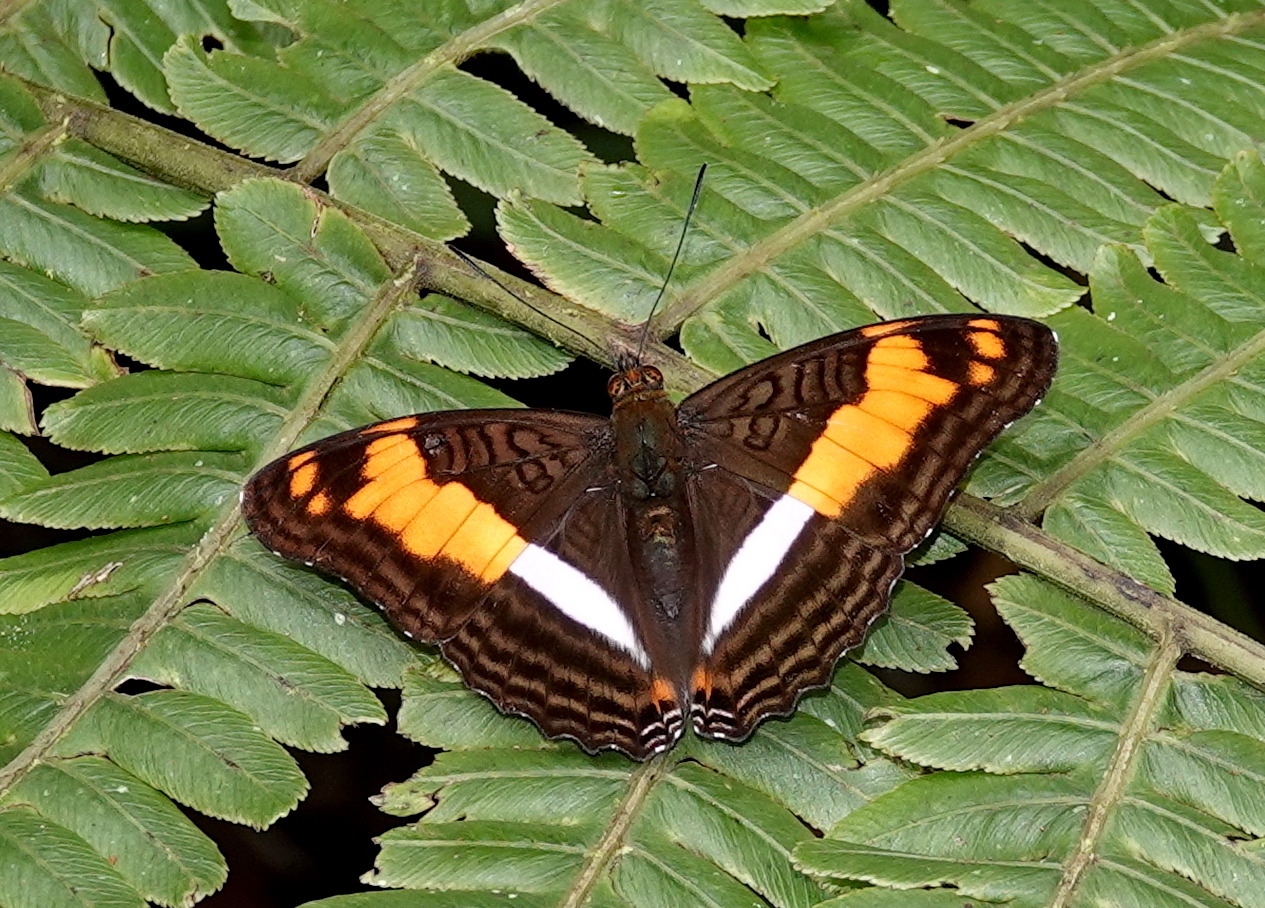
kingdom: Animalia
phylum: Arthropoda
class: Insecta
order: Lepidoptera
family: Nymphalidae
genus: Limenitis
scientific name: Limenitis phylaca
